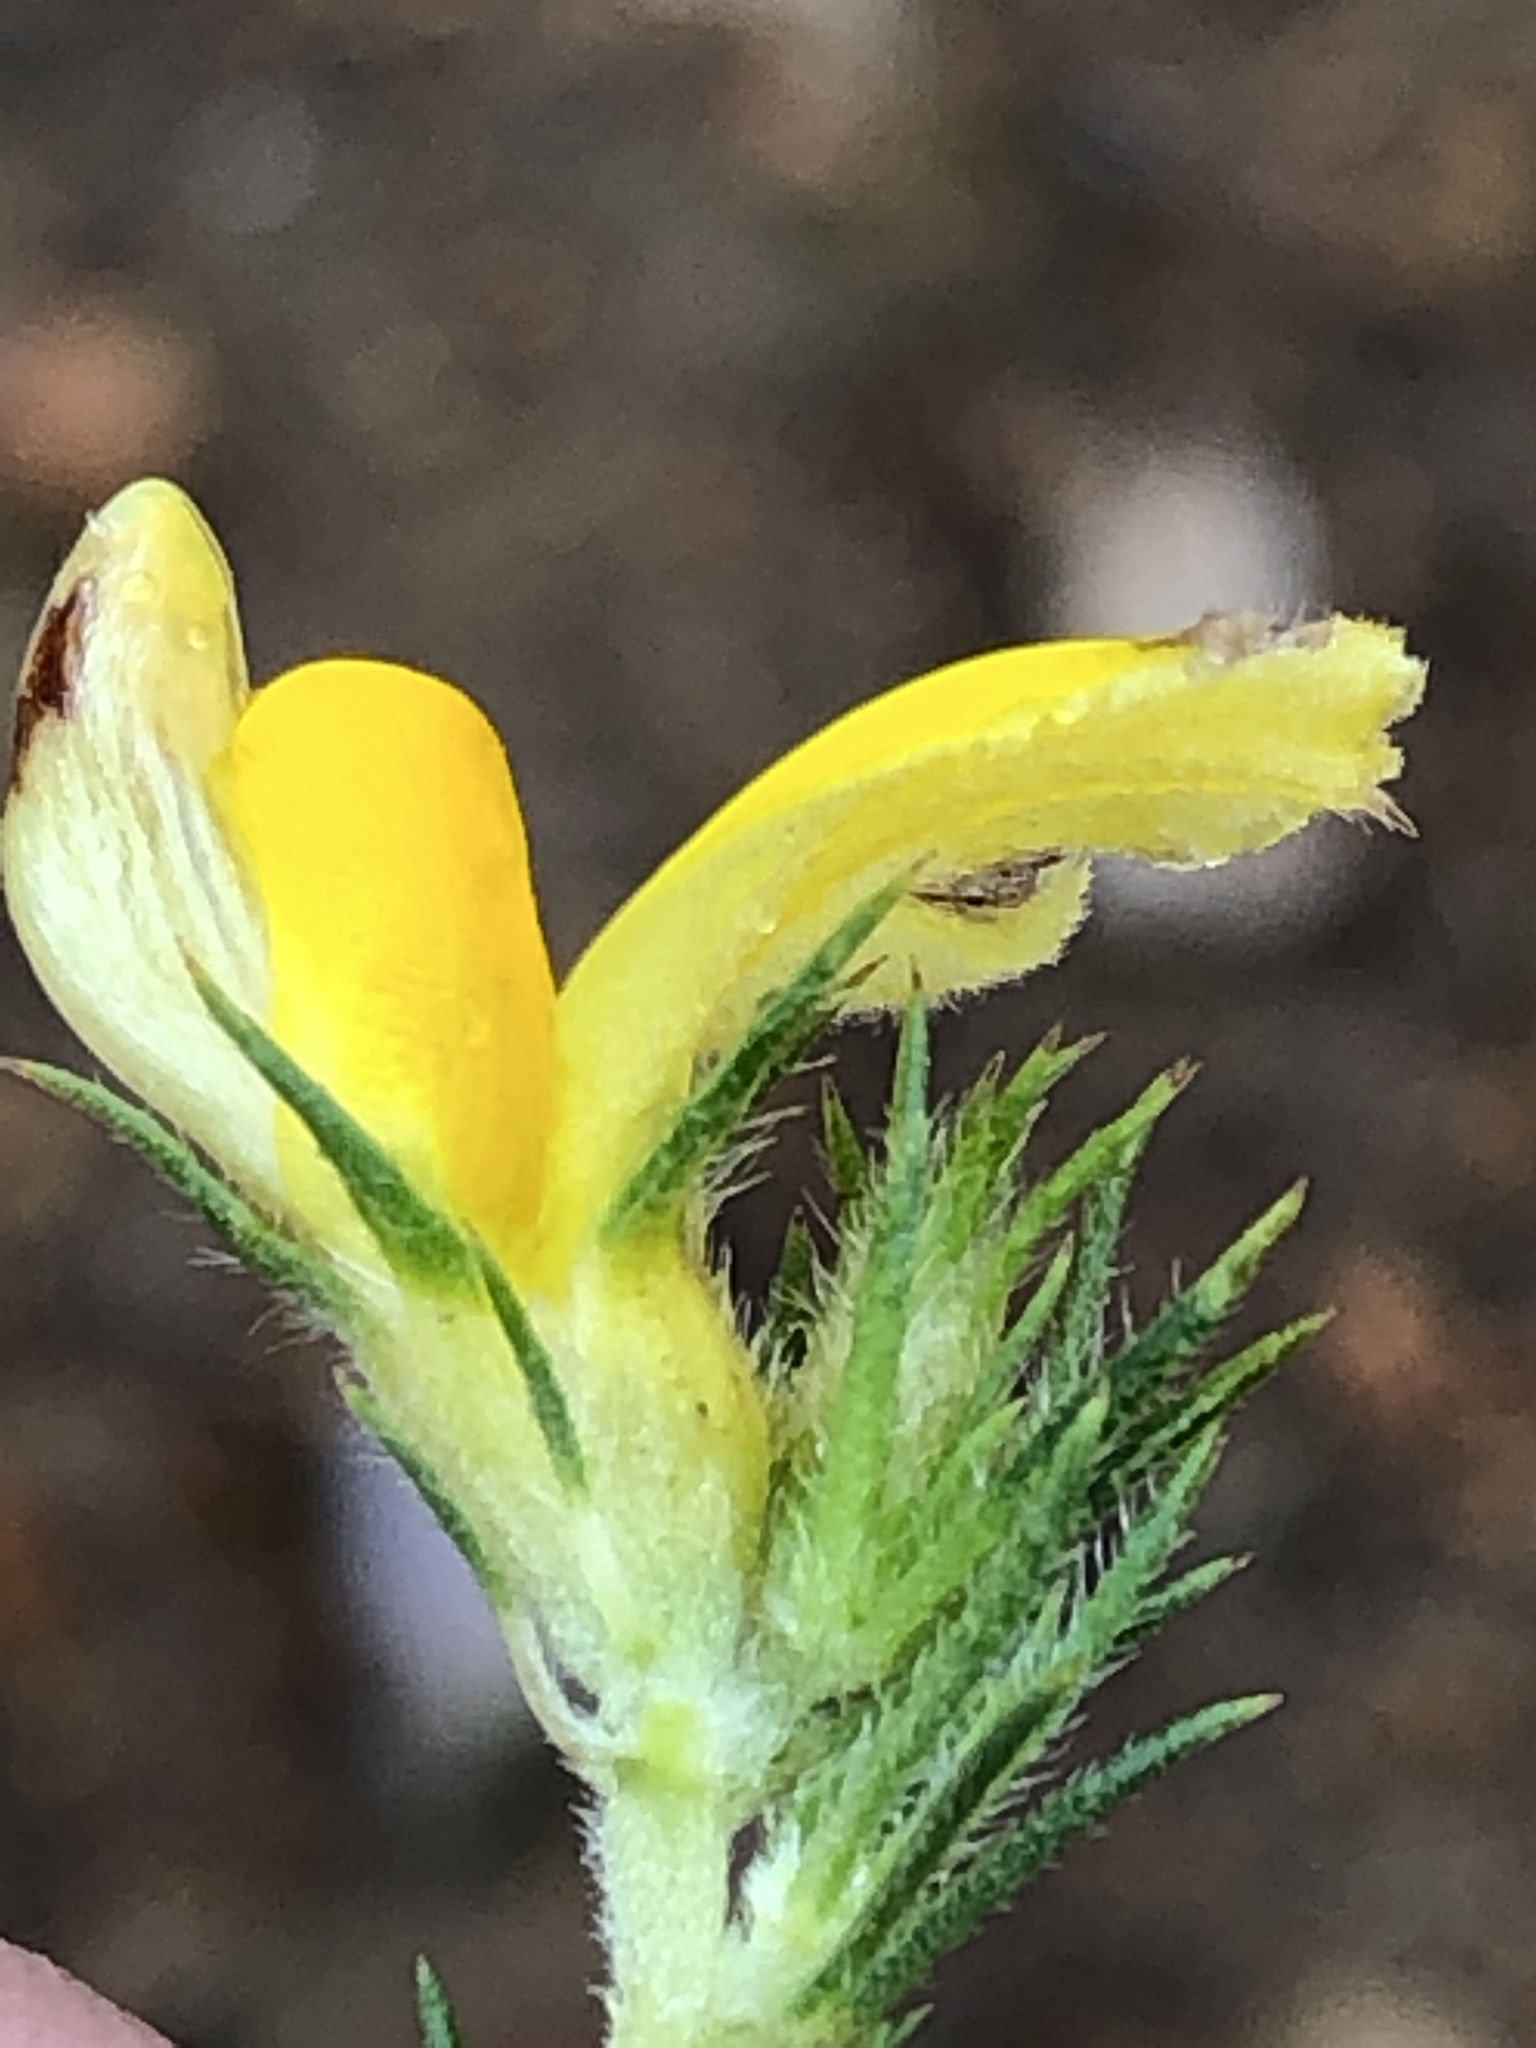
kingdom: Plantae
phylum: Tracheophyta
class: Magnoliopsida
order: Fabales
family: Fabaceae
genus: Aspalathus
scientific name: Aspalathus neglecta
